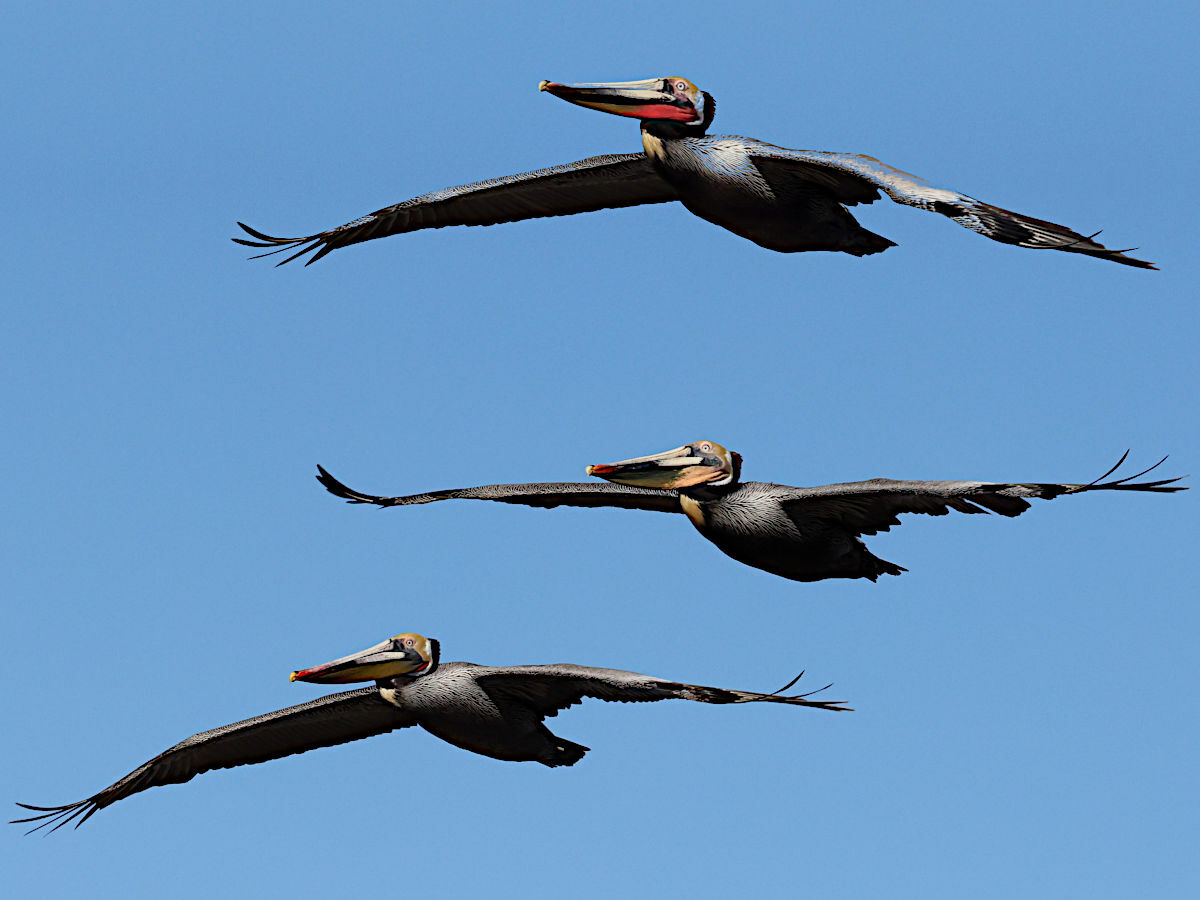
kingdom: Animalia
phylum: Chordata
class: Aves
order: Pelecaniformes
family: Pelecanidae
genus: Pelecanus
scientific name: Pelecanus occidentalis
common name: Brown pelican
